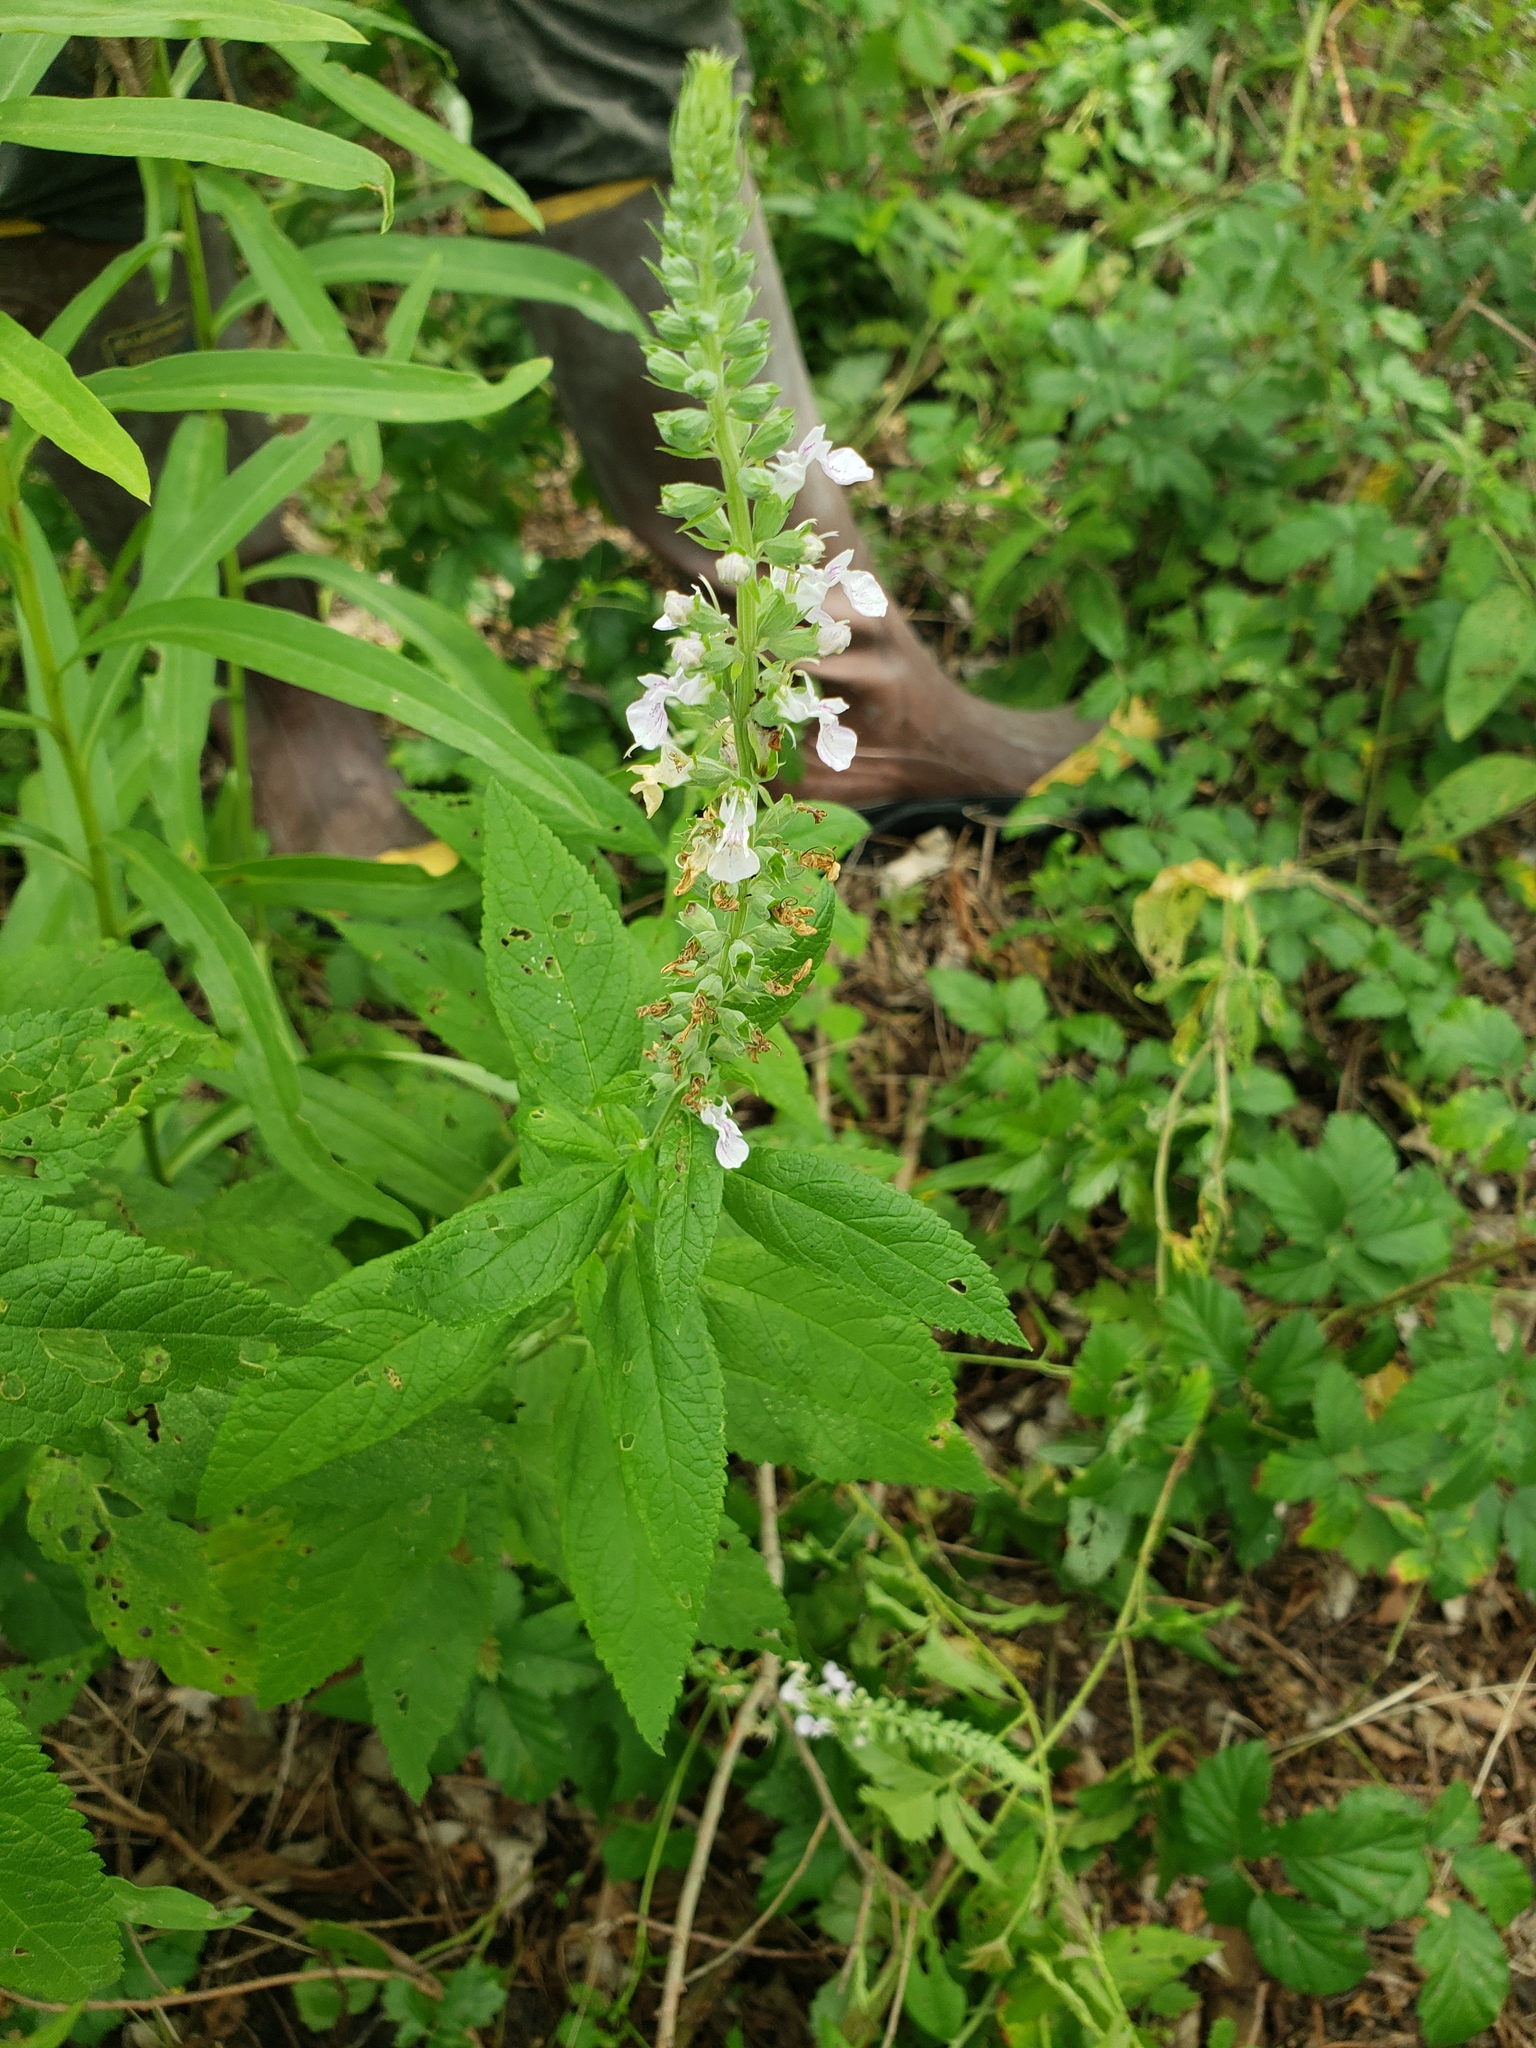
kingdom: Plantae
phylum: Tracheophyta
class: Magnoliopsida
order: Lamiales
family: Lamiaceae
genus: Teucrium
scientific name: Teucrium canadense
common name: American germander
